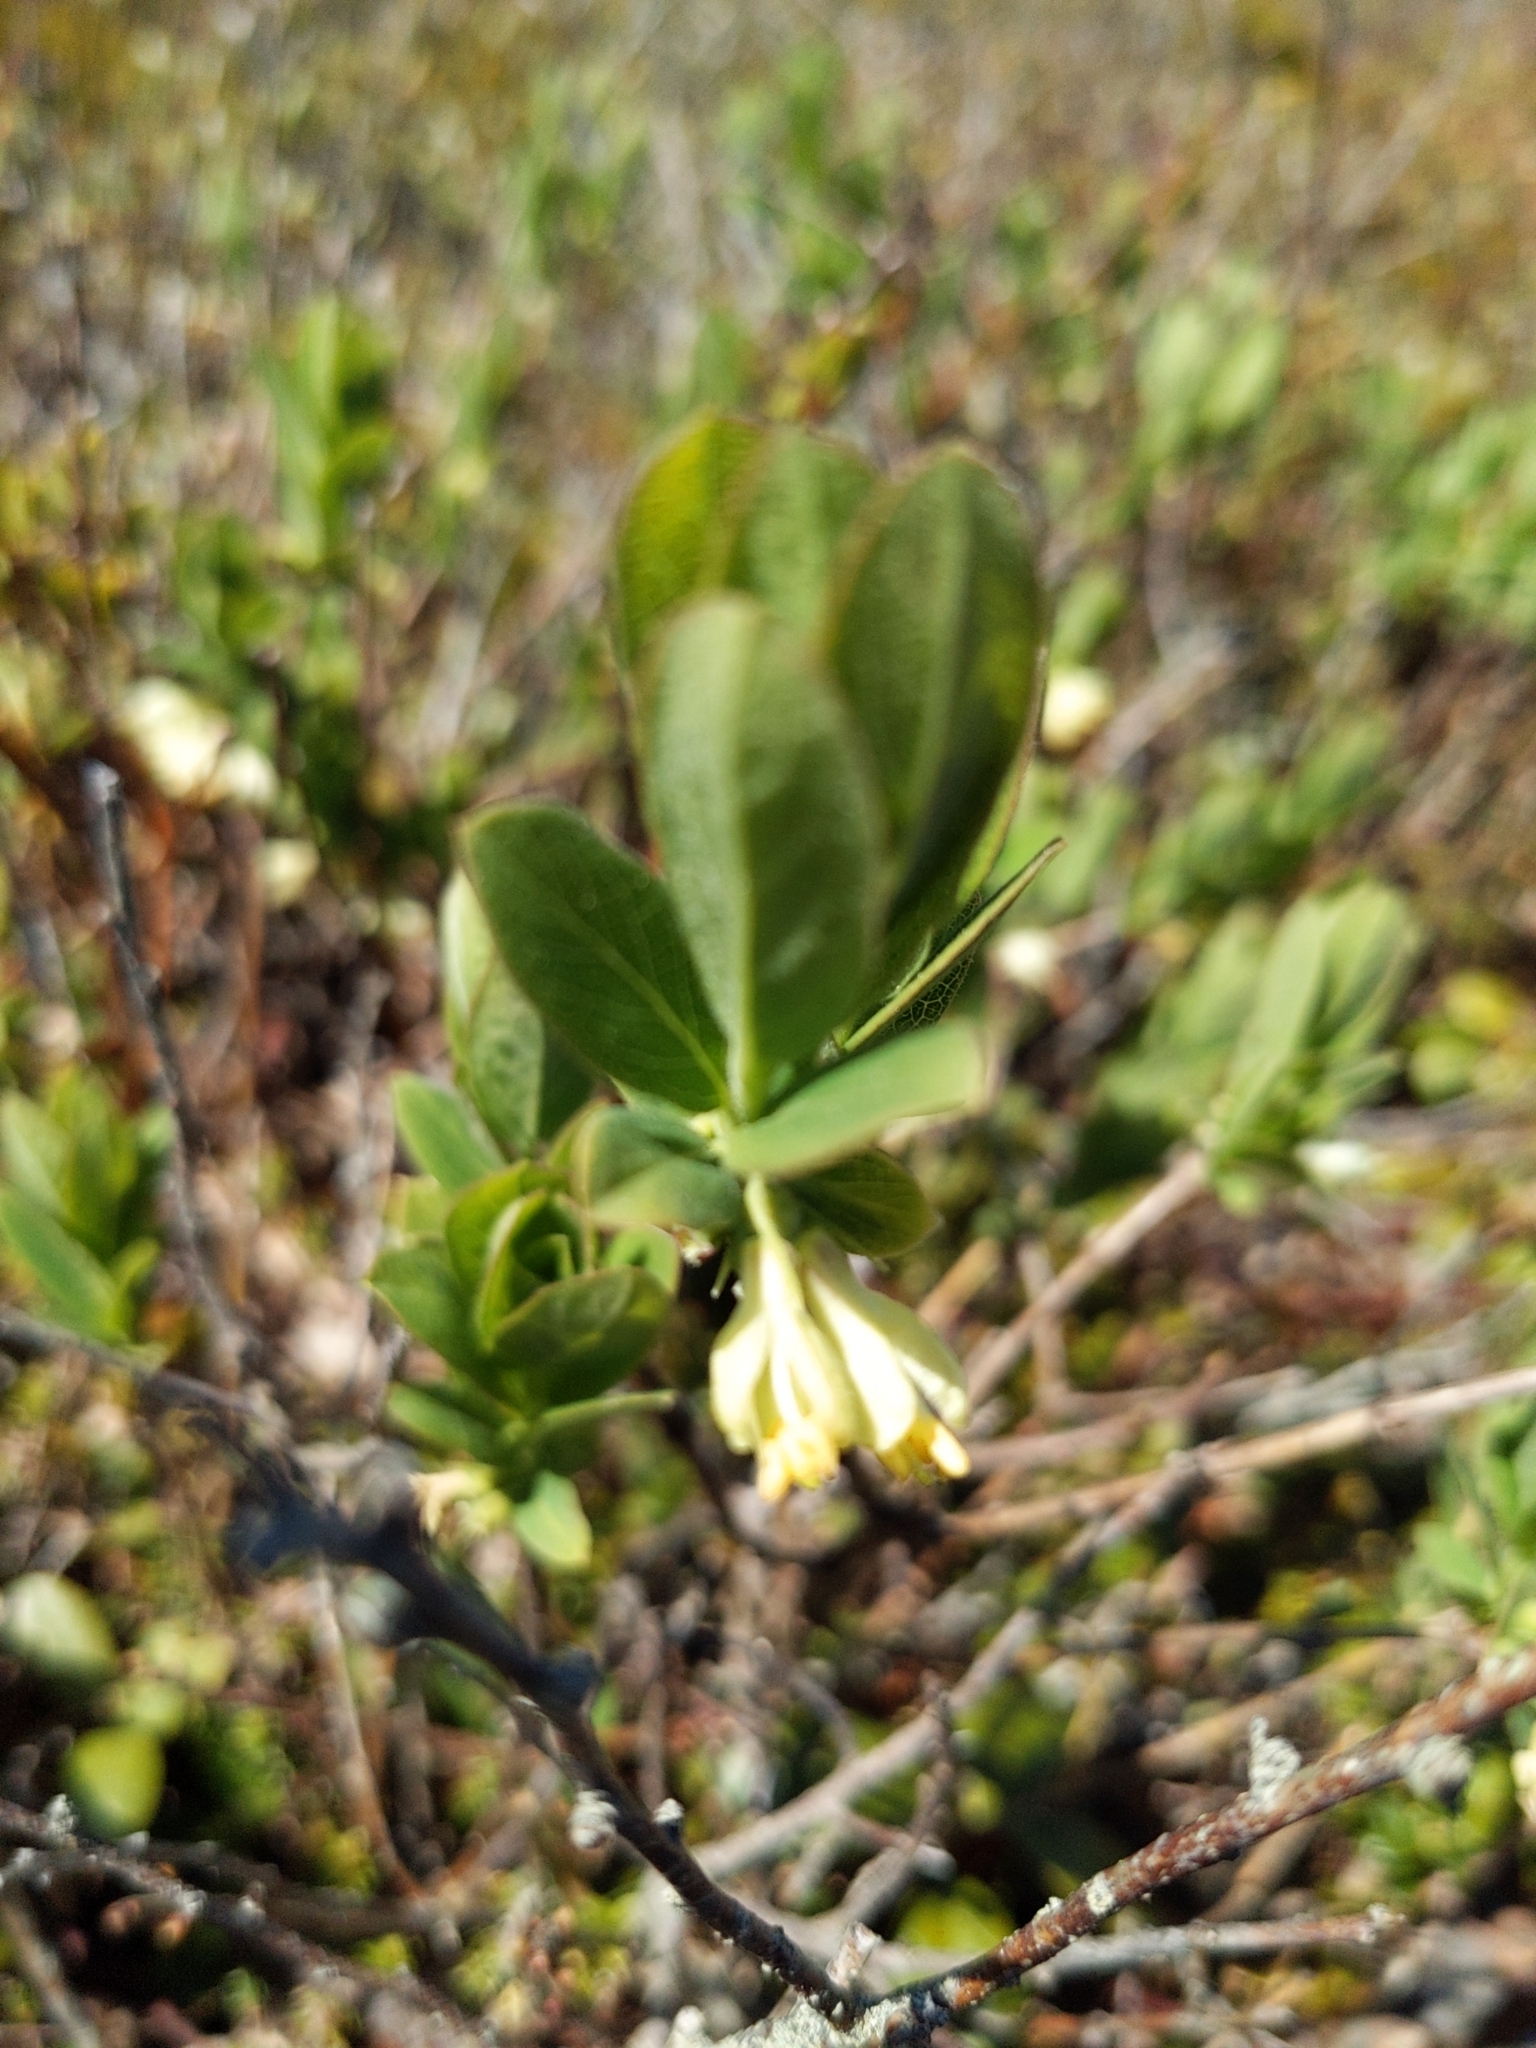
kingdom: Plantae
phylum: Tracheophyta
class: Magnoliopsida
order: Dipsacales
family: Caprifoliaceae
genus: Lonicera
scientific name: Lonicera villosa
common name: Mountain fly-honeysuckle
